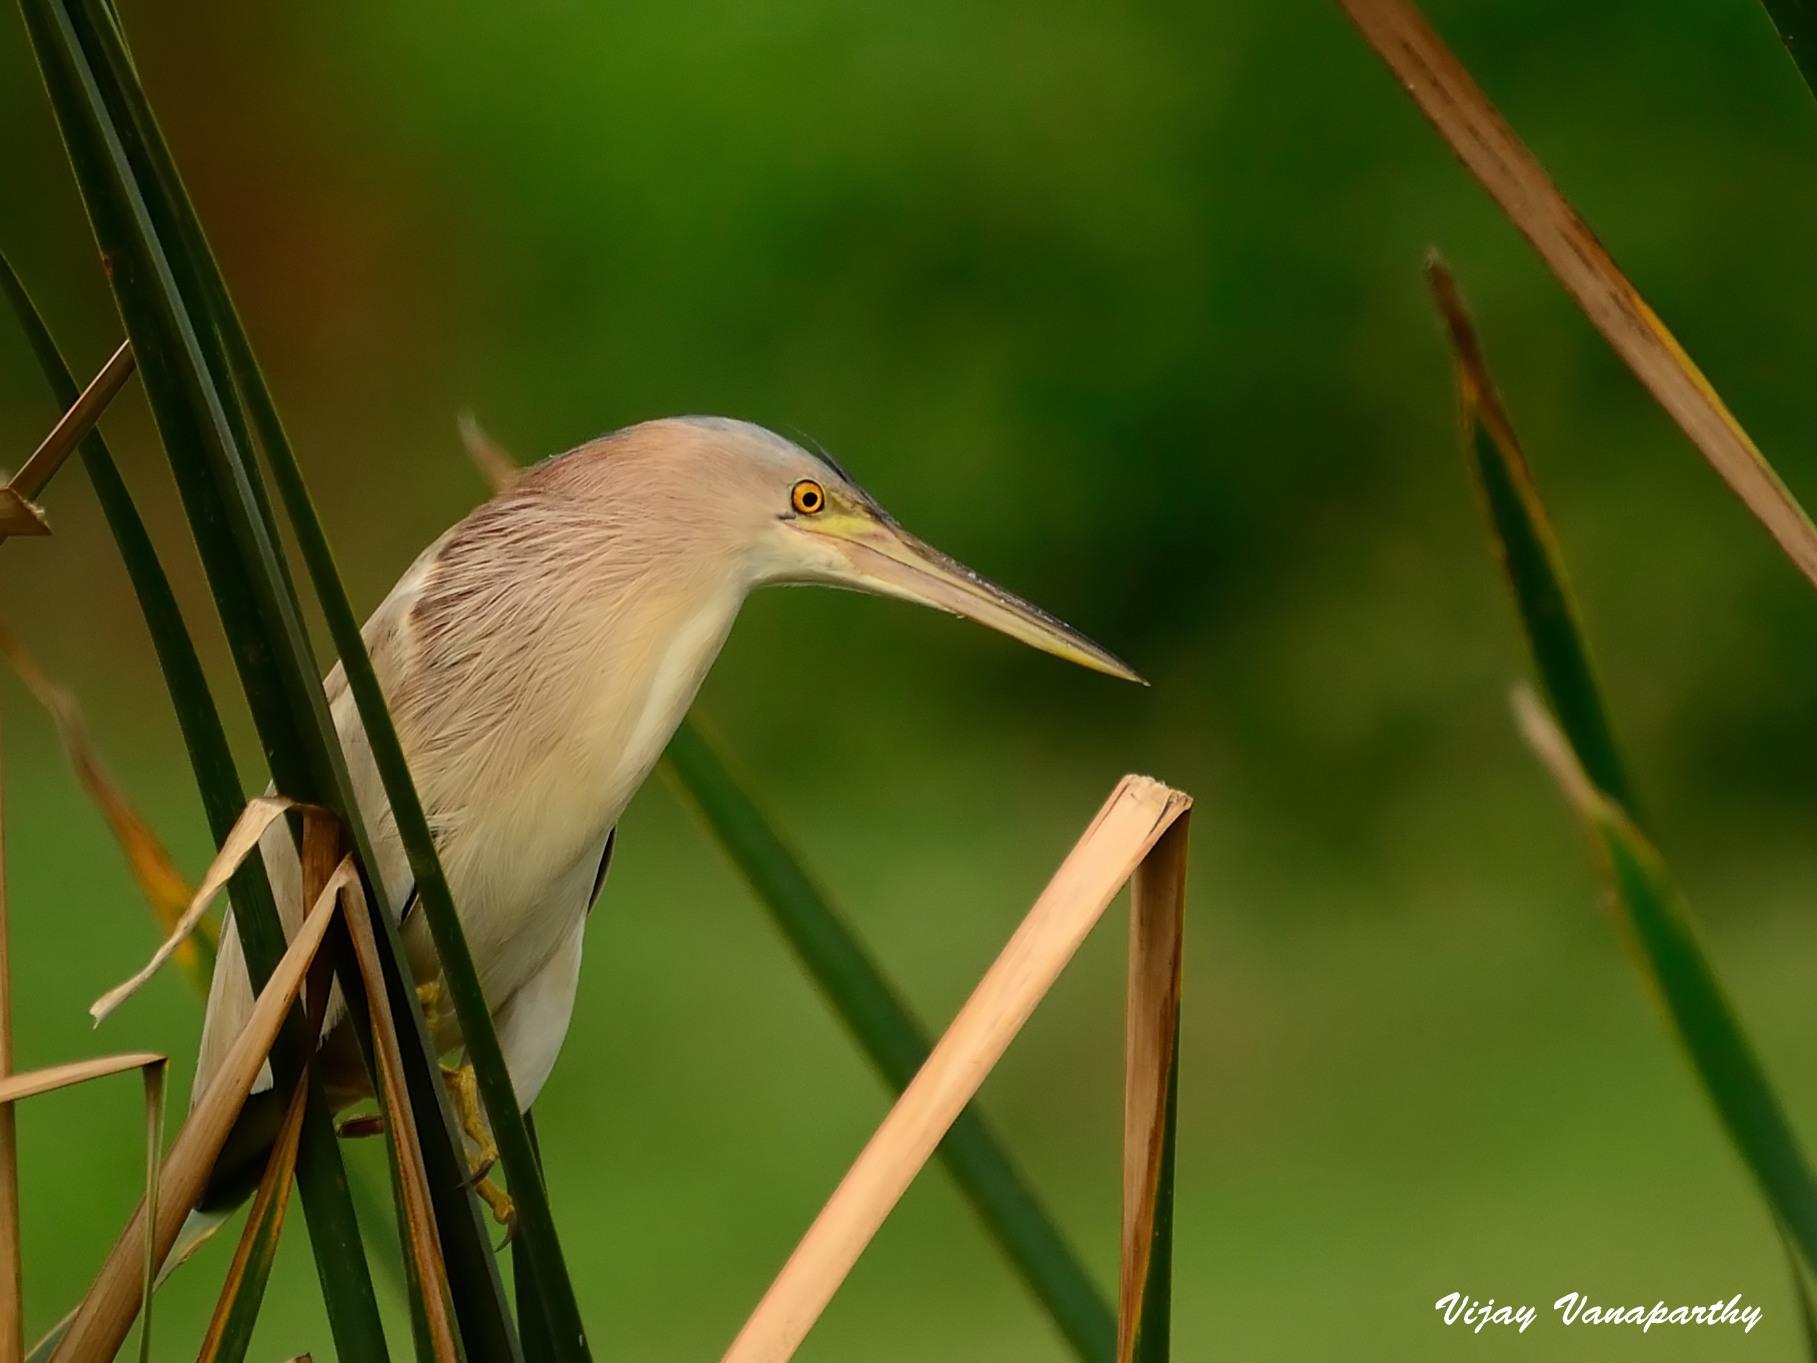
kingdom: Animalia
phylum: Chordata
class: Aves
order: Pelecaniformes
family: Ardeidae
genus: Ixobrychus
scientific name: Ixobrychus sinensis
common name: Yellow bittern
